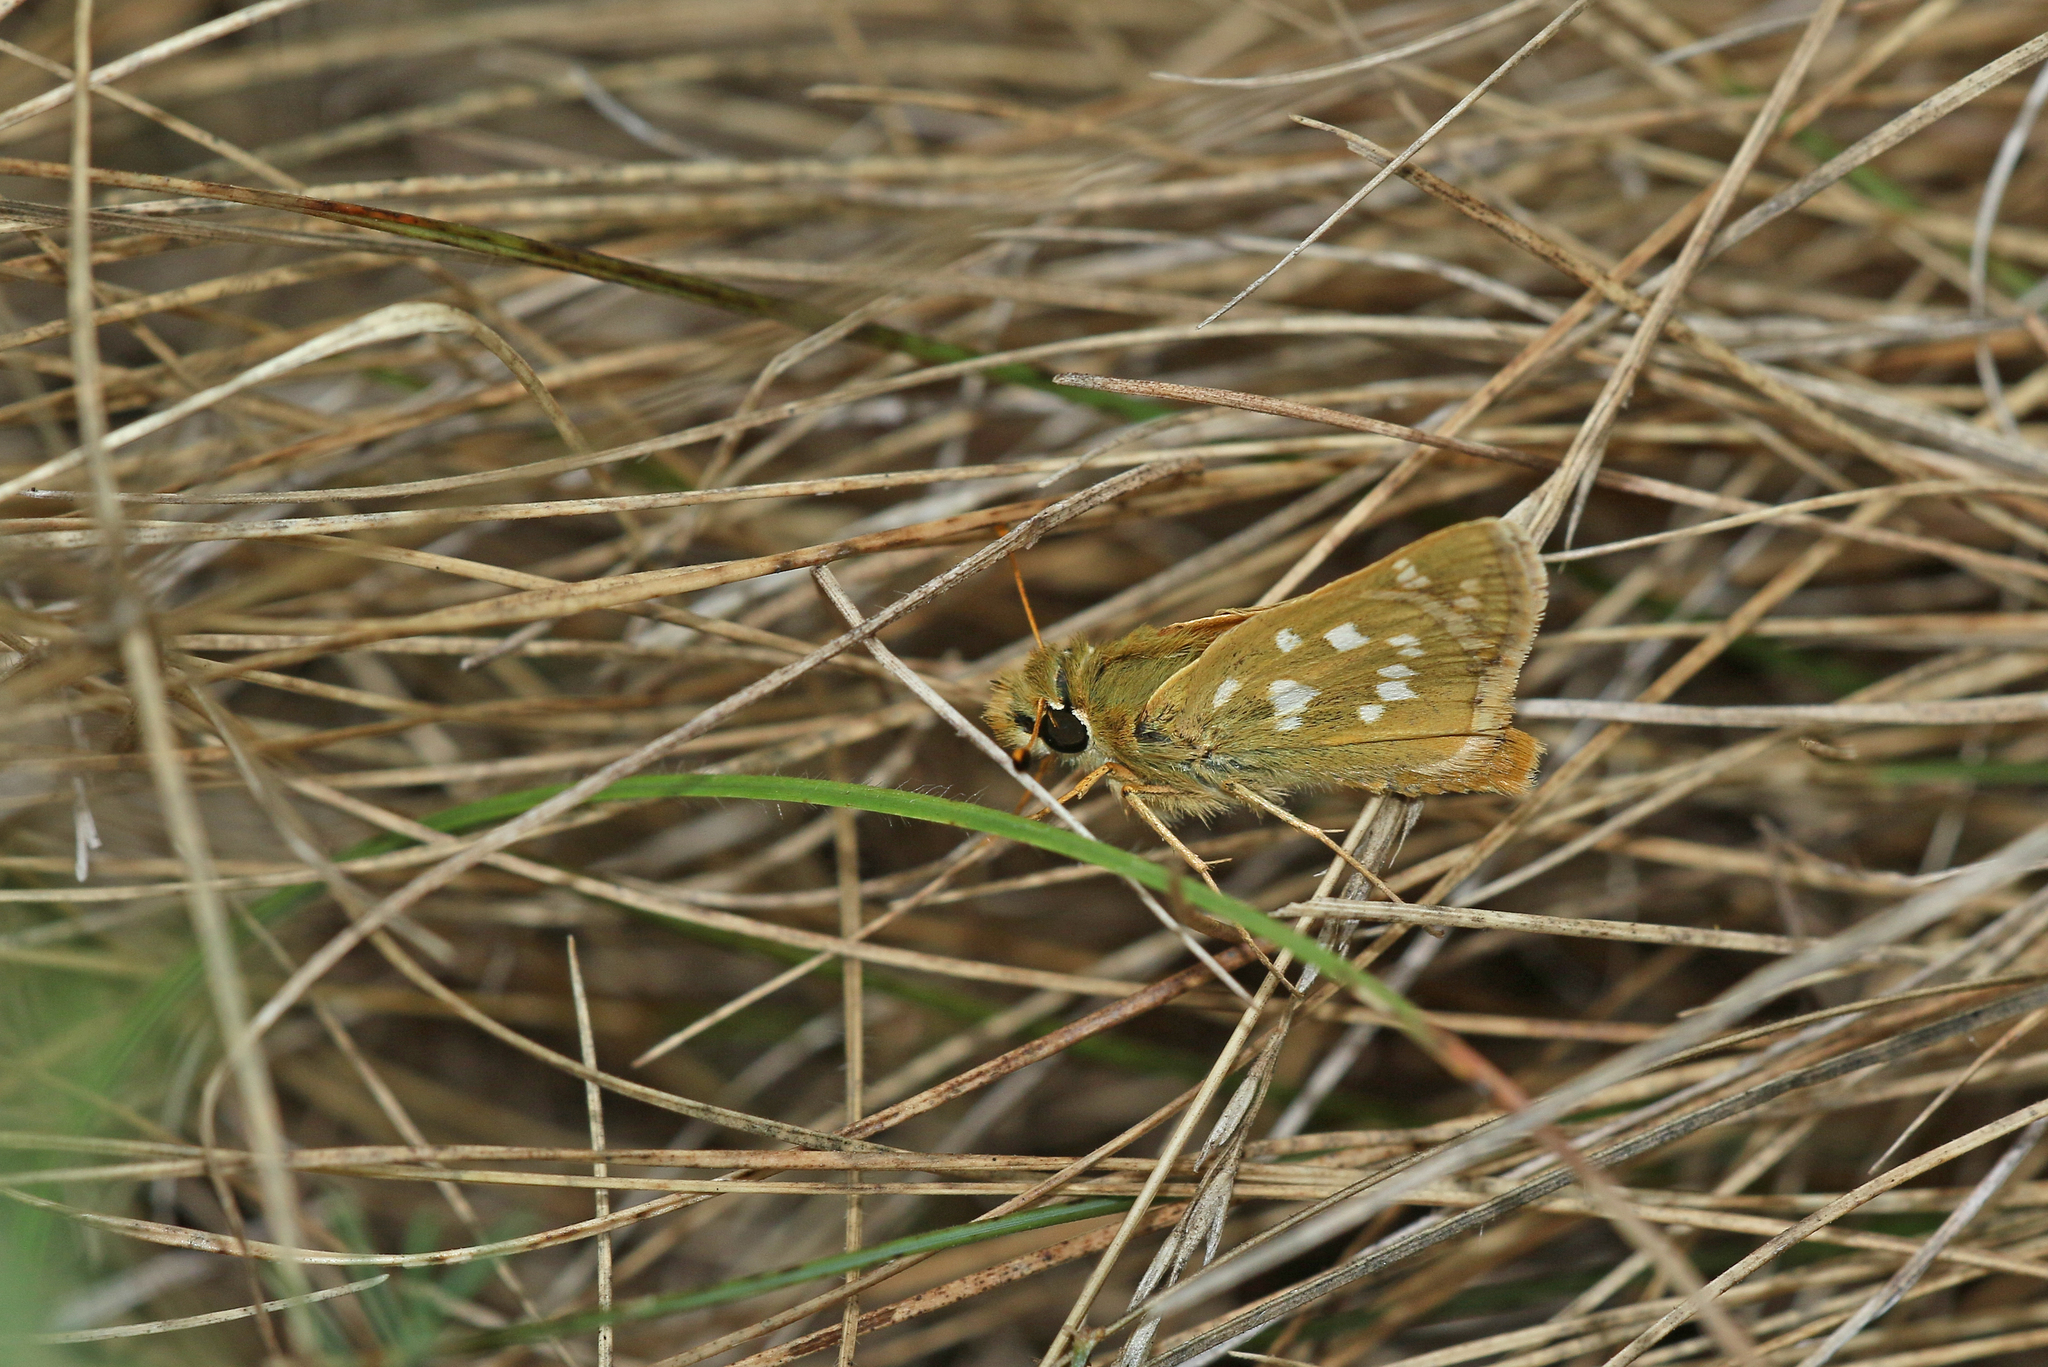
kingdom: Animalia
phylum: Arthropoda
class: Insecta
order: Lepidoptera
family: Hesperiidae
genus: Hesperia
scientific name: Hesperia comma
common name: Common branded skipper
